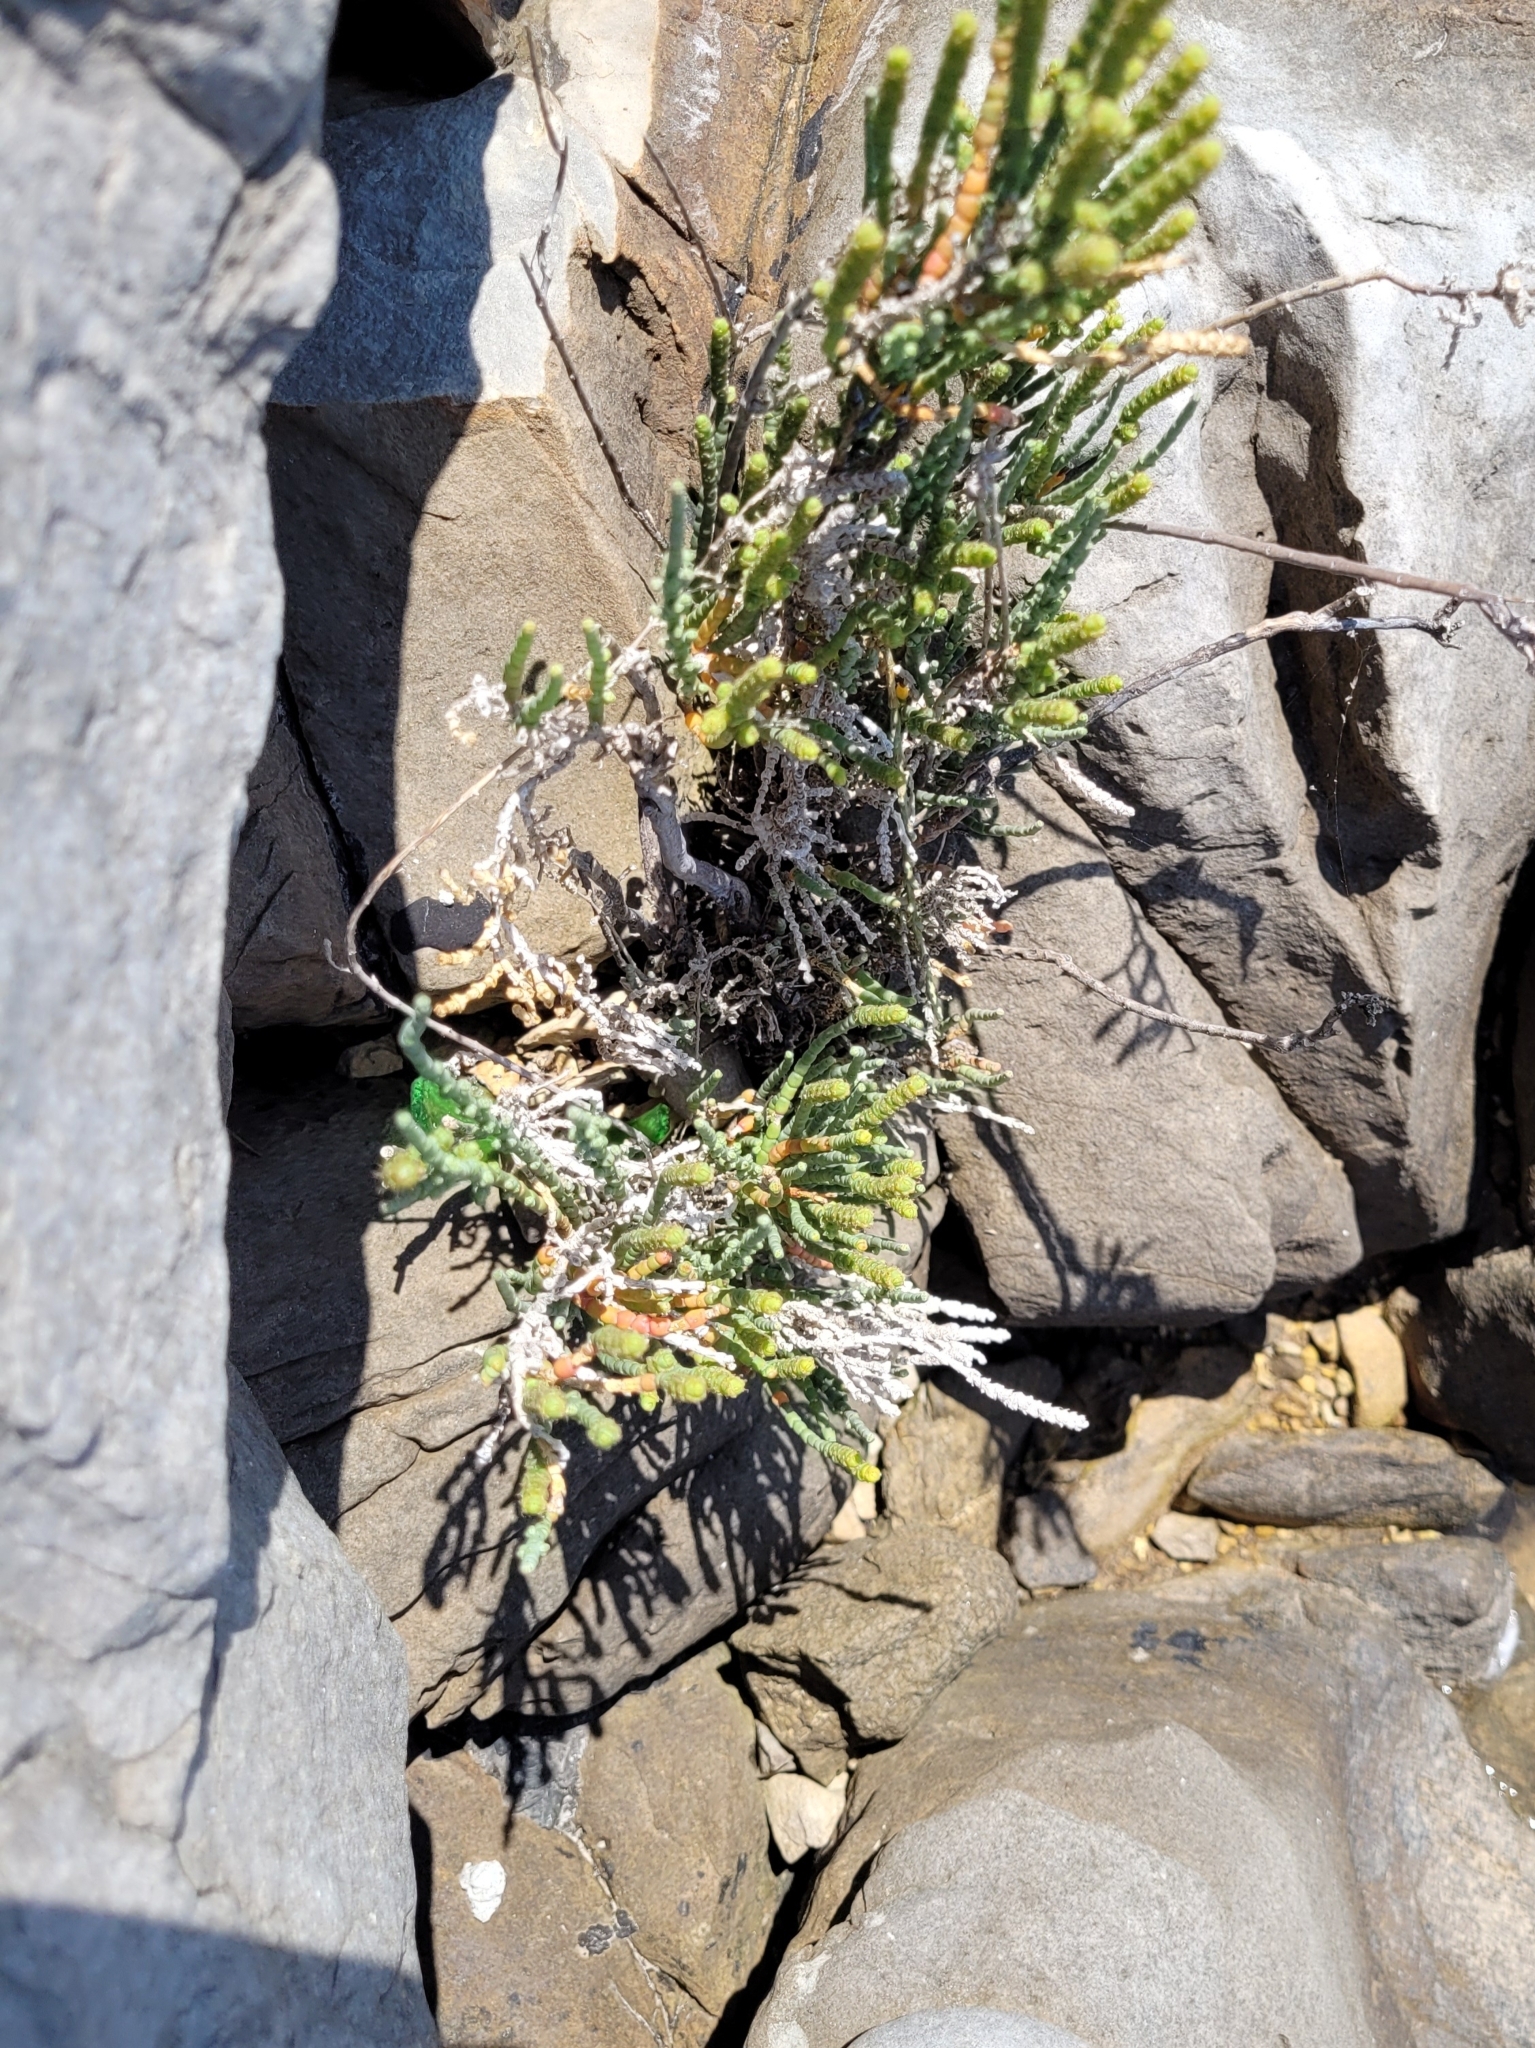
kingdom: Plantae
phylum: Tracheophyta
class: Magnoliopsida
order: Caryophyllales
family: Amaranthaceae
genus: Arthrocaulon
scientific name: Arthrocaulon macrostachyum
